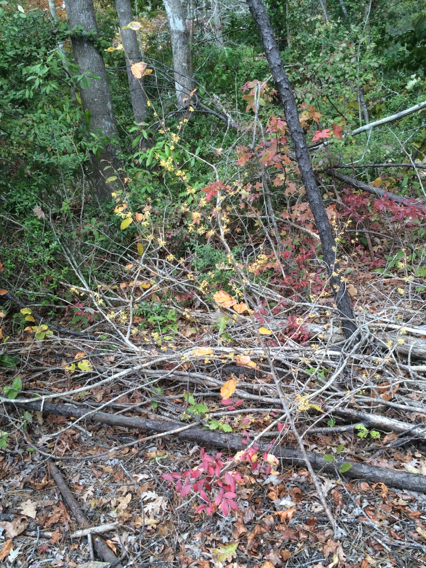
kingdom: Plantae
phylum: Tracheophyta
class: Magnoliopsida
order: Saxifragales
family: Hamamelidaceae
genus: Hamamelis
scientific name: Hamamelis virginiana
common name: Witch-hazel
